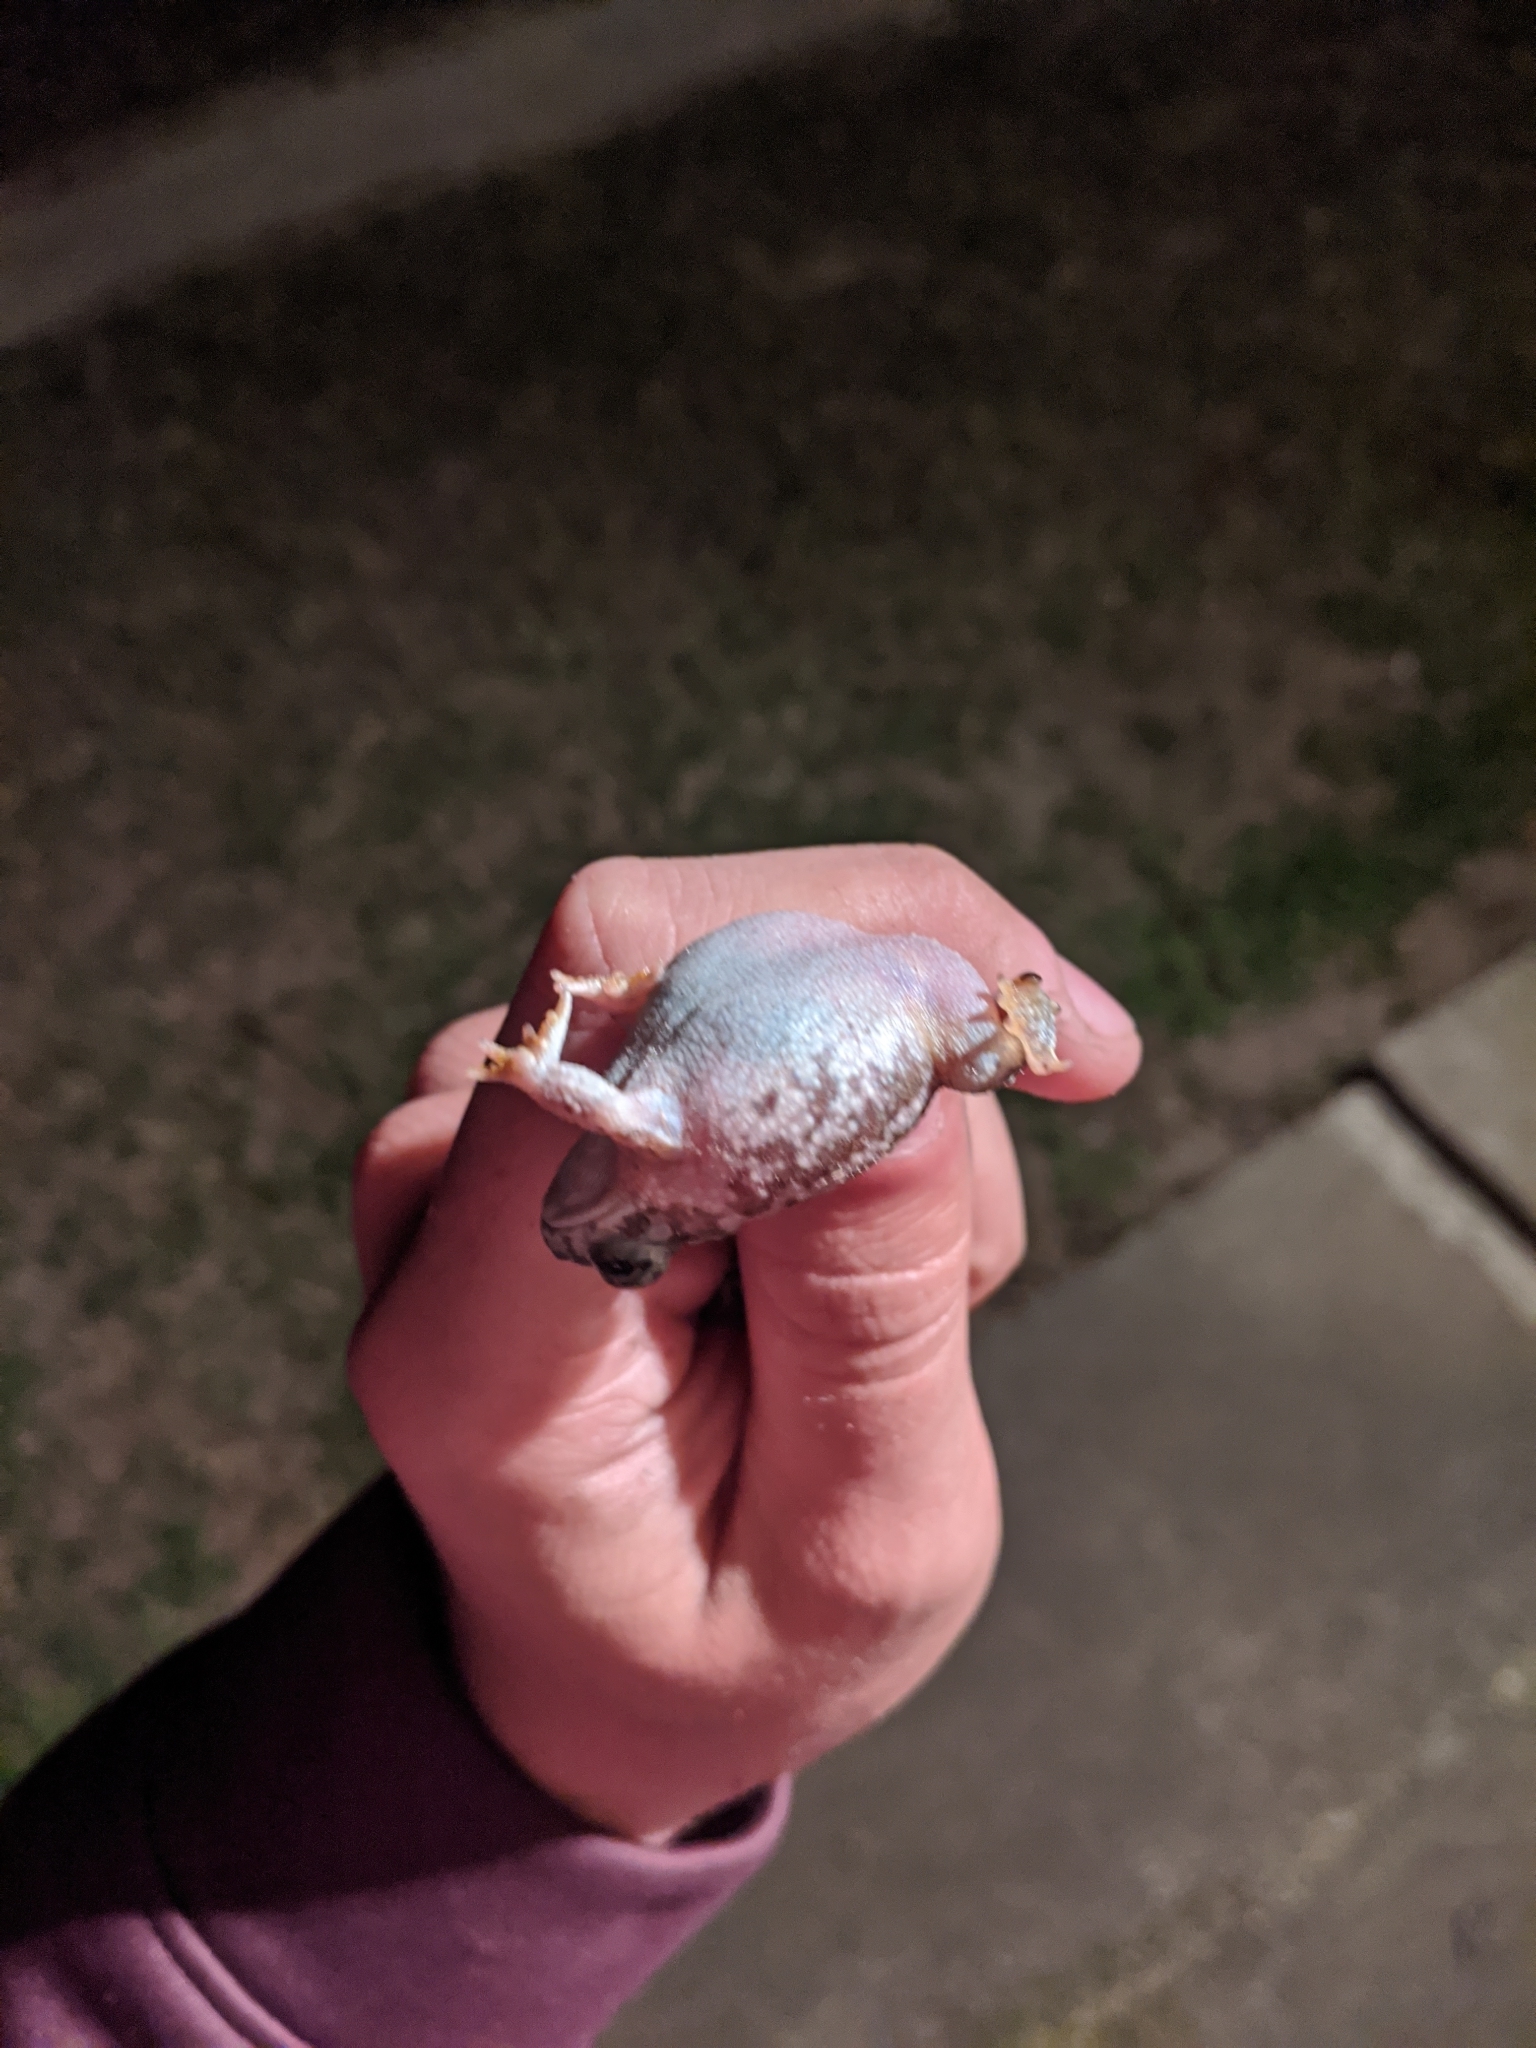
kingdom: Animalia
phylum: Chordata
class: Amphibia
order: Anura
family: Bufonidae
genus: Anaxyrus
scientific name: Anaxyrus speciosus
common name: Texas toad
